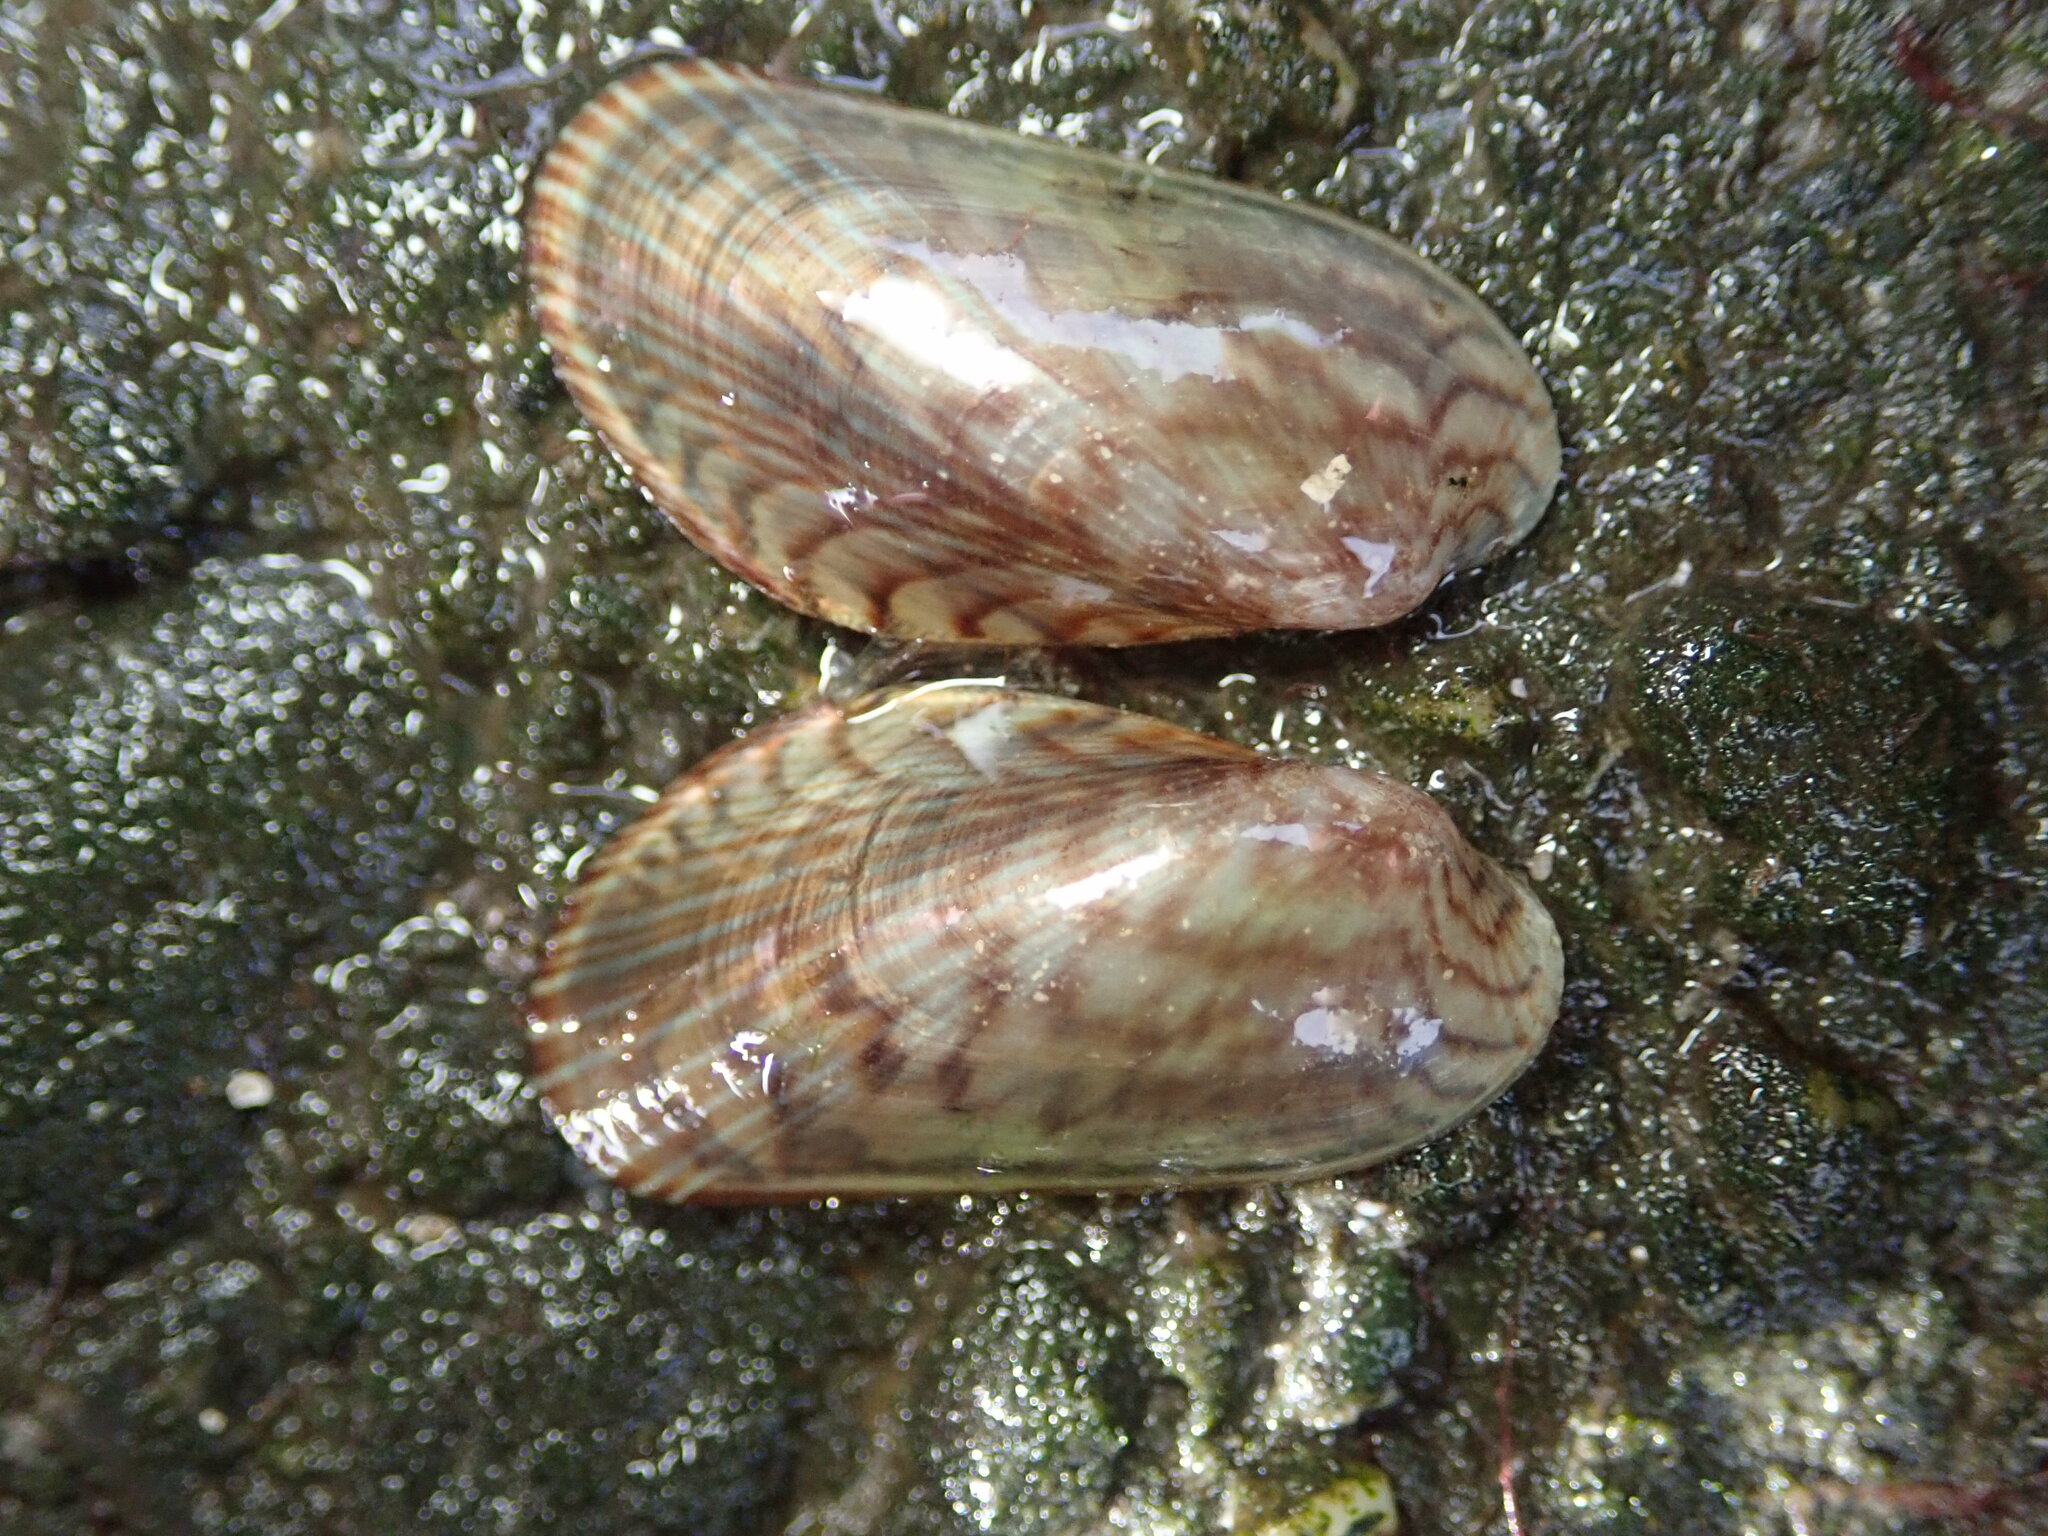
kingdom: Animalia
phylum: Mollusca
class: Bivalvia
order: Mytilida
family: Mytilidae
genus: Arcuatula
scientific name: Arcuatula senhousia
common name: Asian mussel
